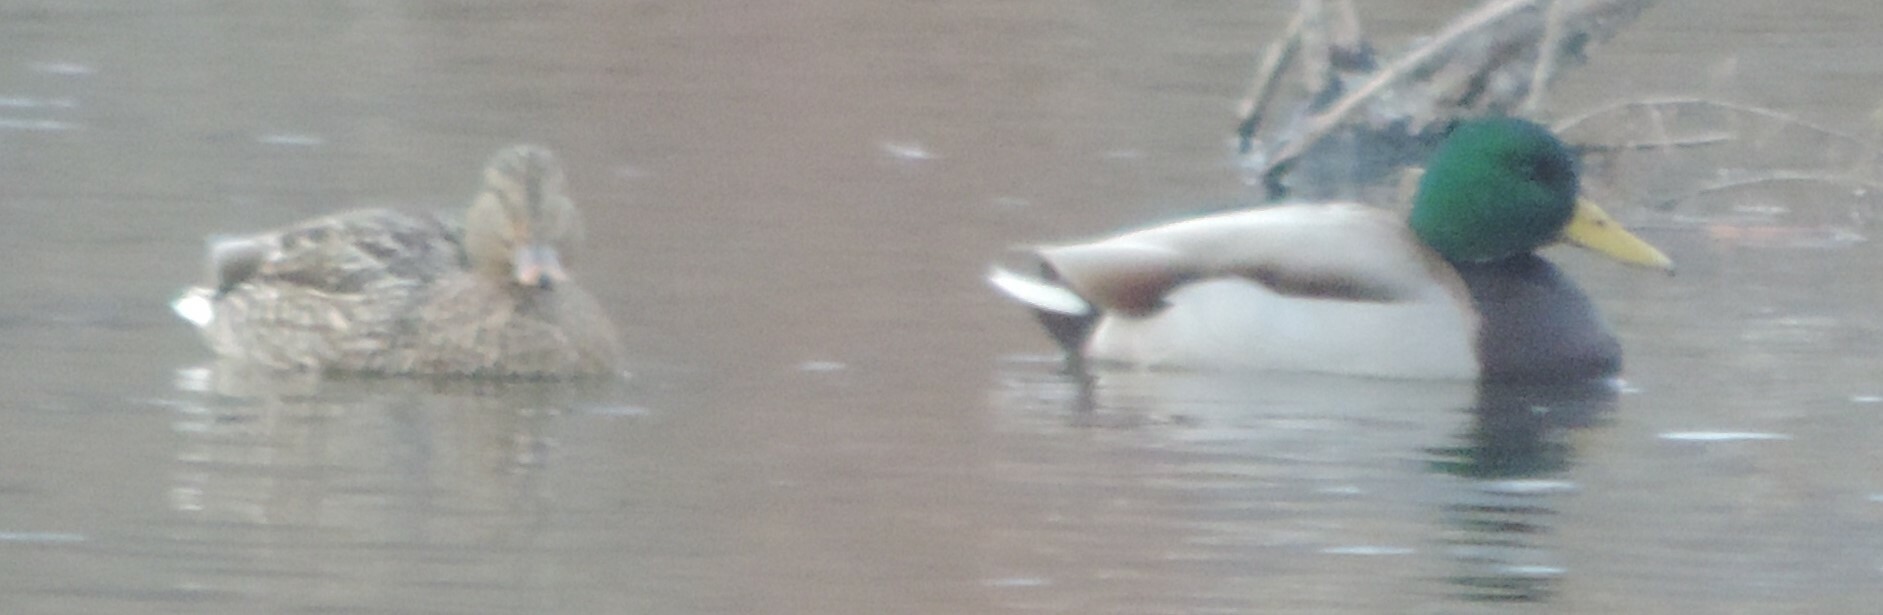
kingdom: Animalia
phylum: Chordata
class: Aves
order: Anseriformes
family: Anatidae
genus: Anas
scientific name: Anas platyrhynchos
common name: Mallard
